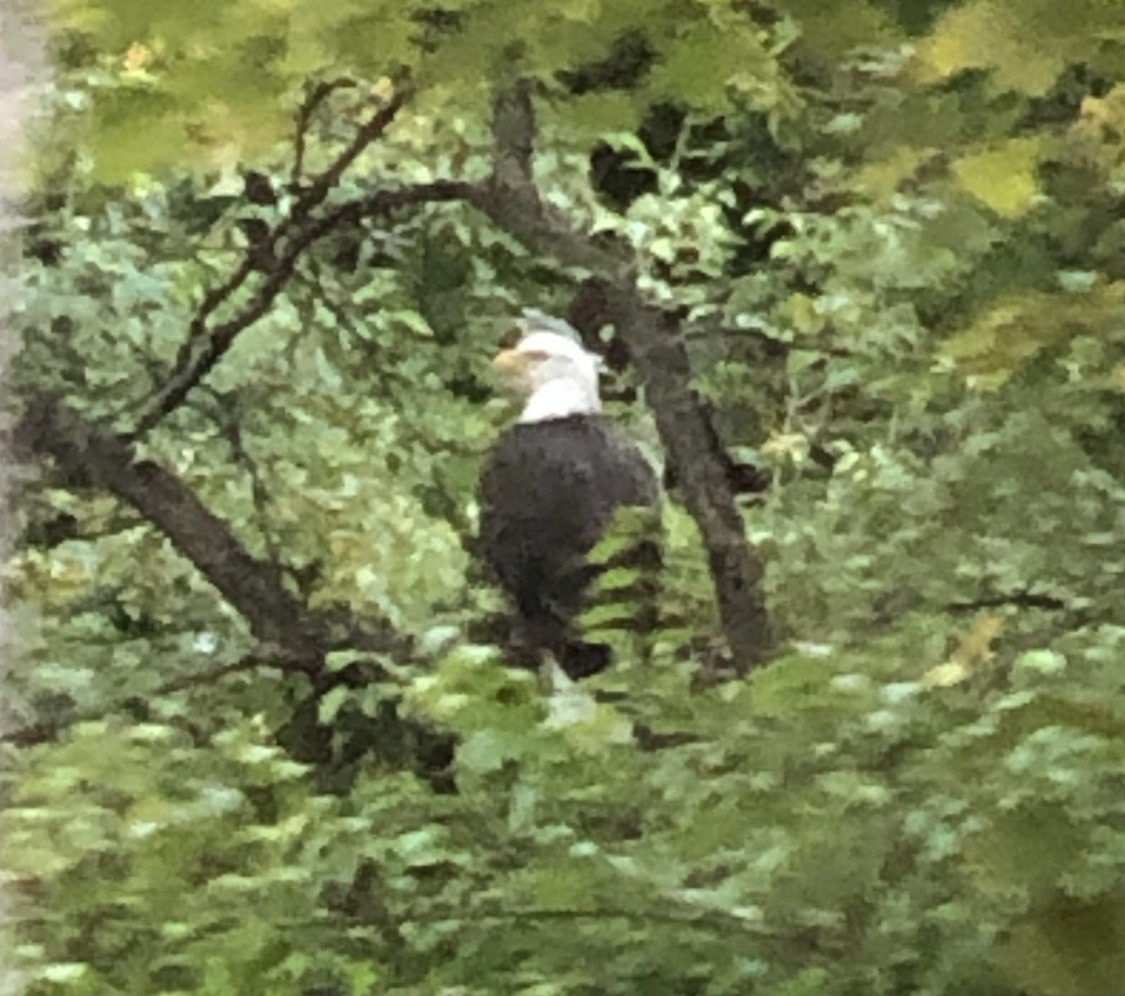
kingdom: Animalia
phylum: Chordata
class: Aves
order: Accipitriformes
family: Accipitridae
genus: Haliaeetus
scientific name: Haliaeetus leucocephalus
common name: Bald eagle
